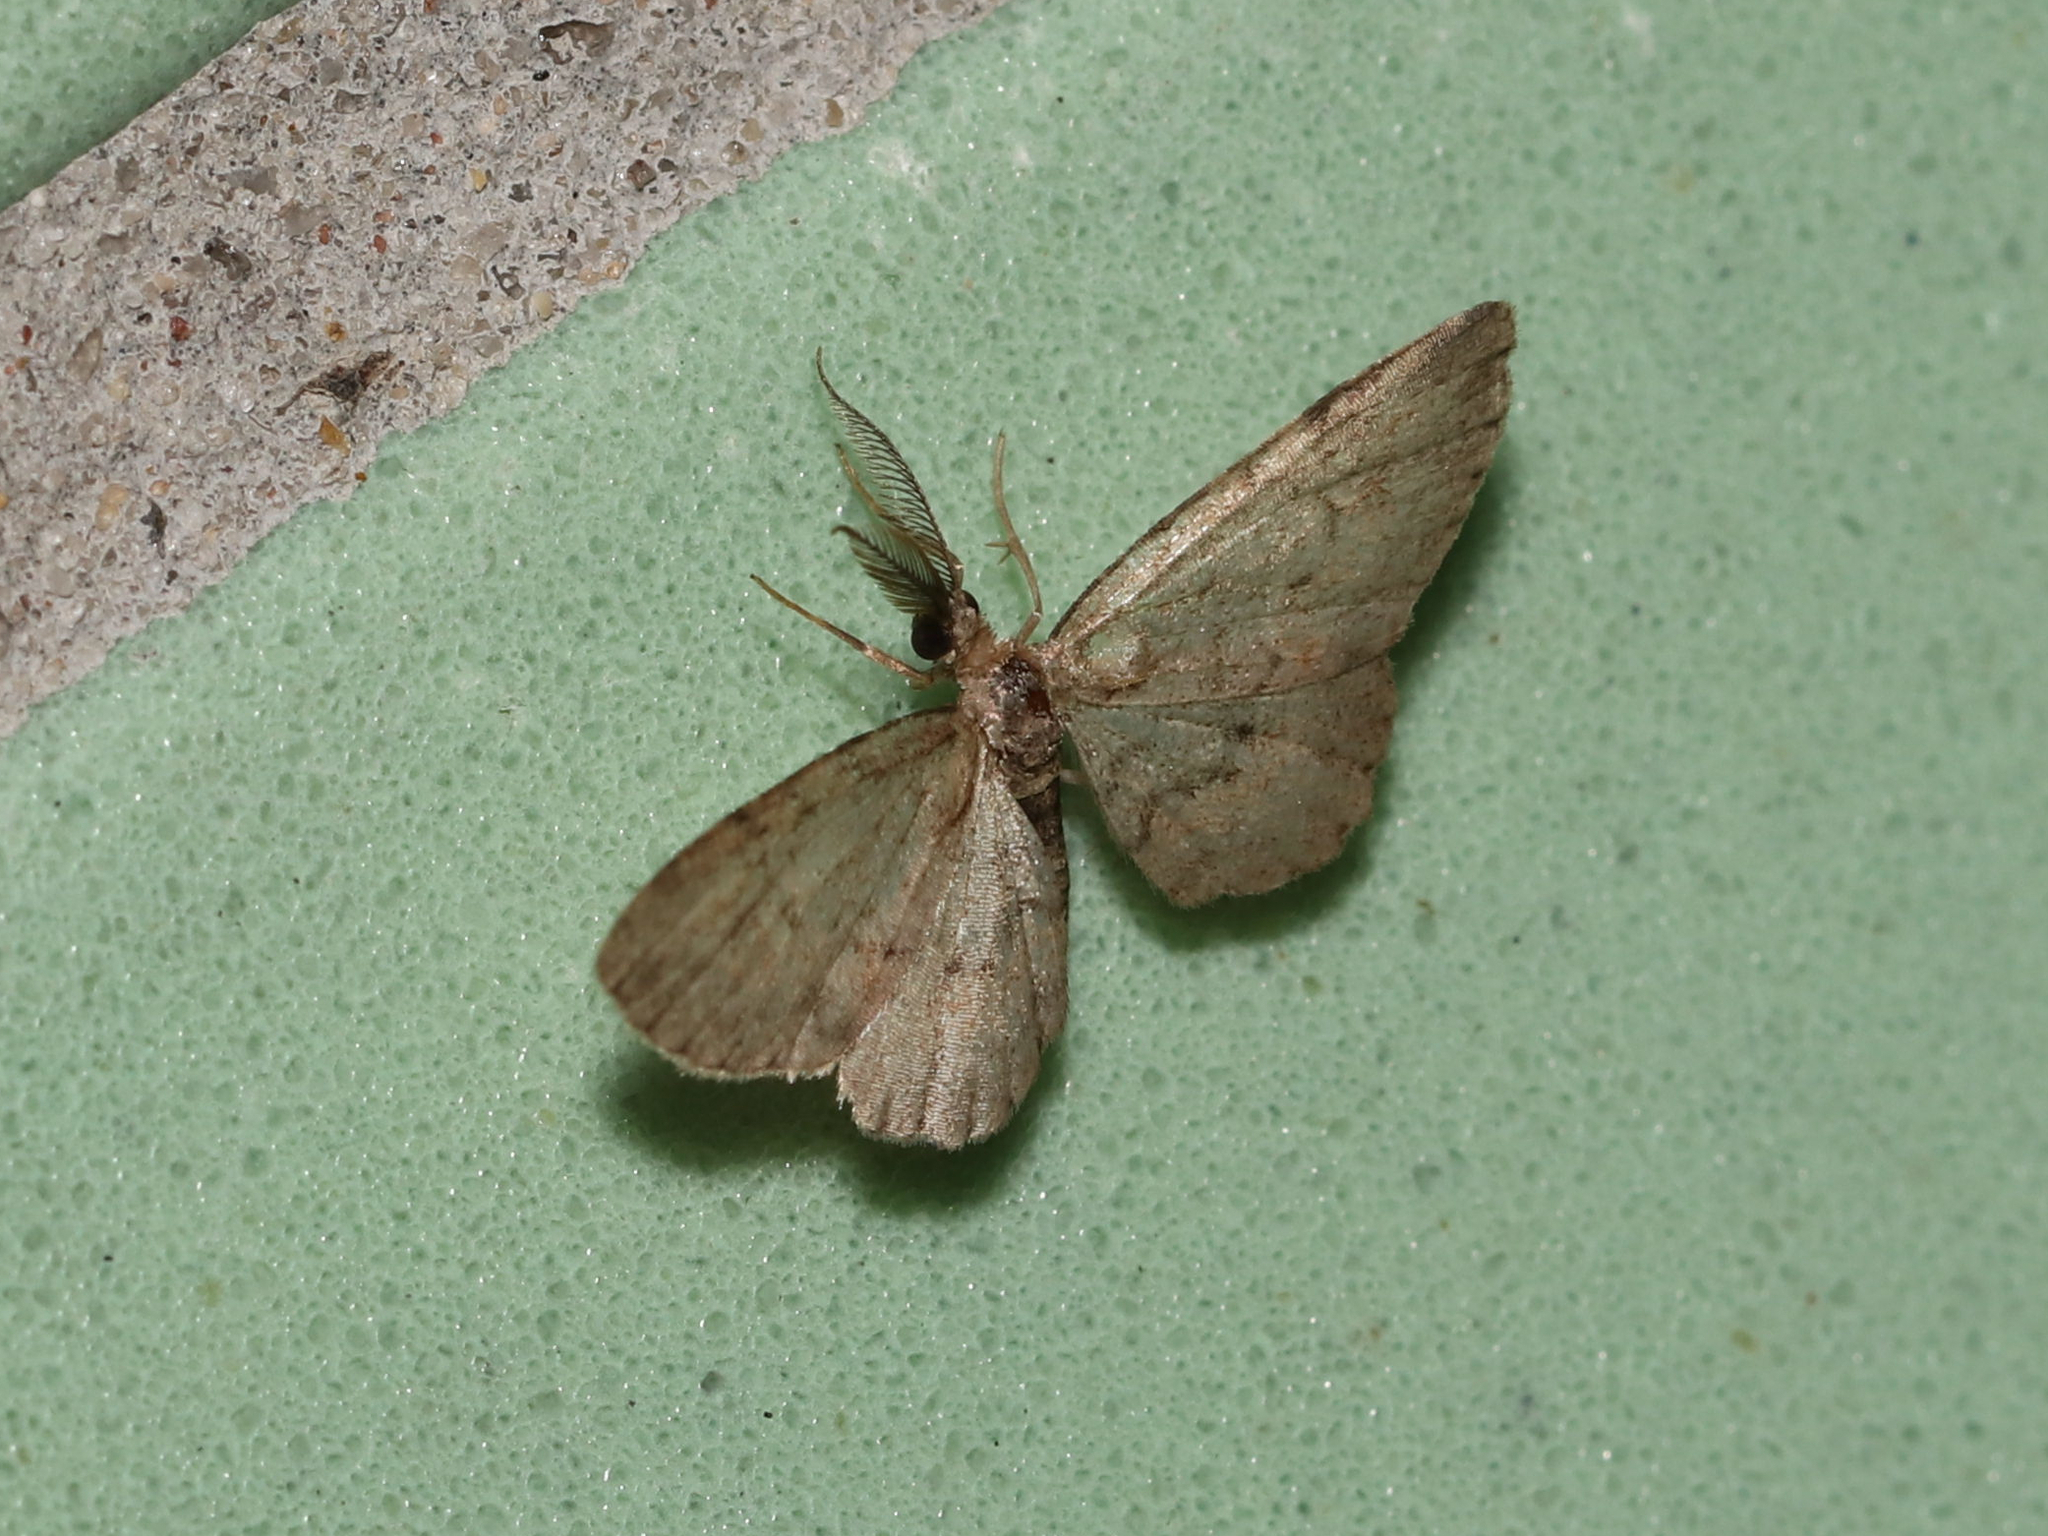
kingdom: Animalia
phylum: Arthropoda
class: Insecta
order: Lepidoptera
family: Geometridae
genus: Glenoides
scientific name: Glenoides texanaria
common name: Texas gray
